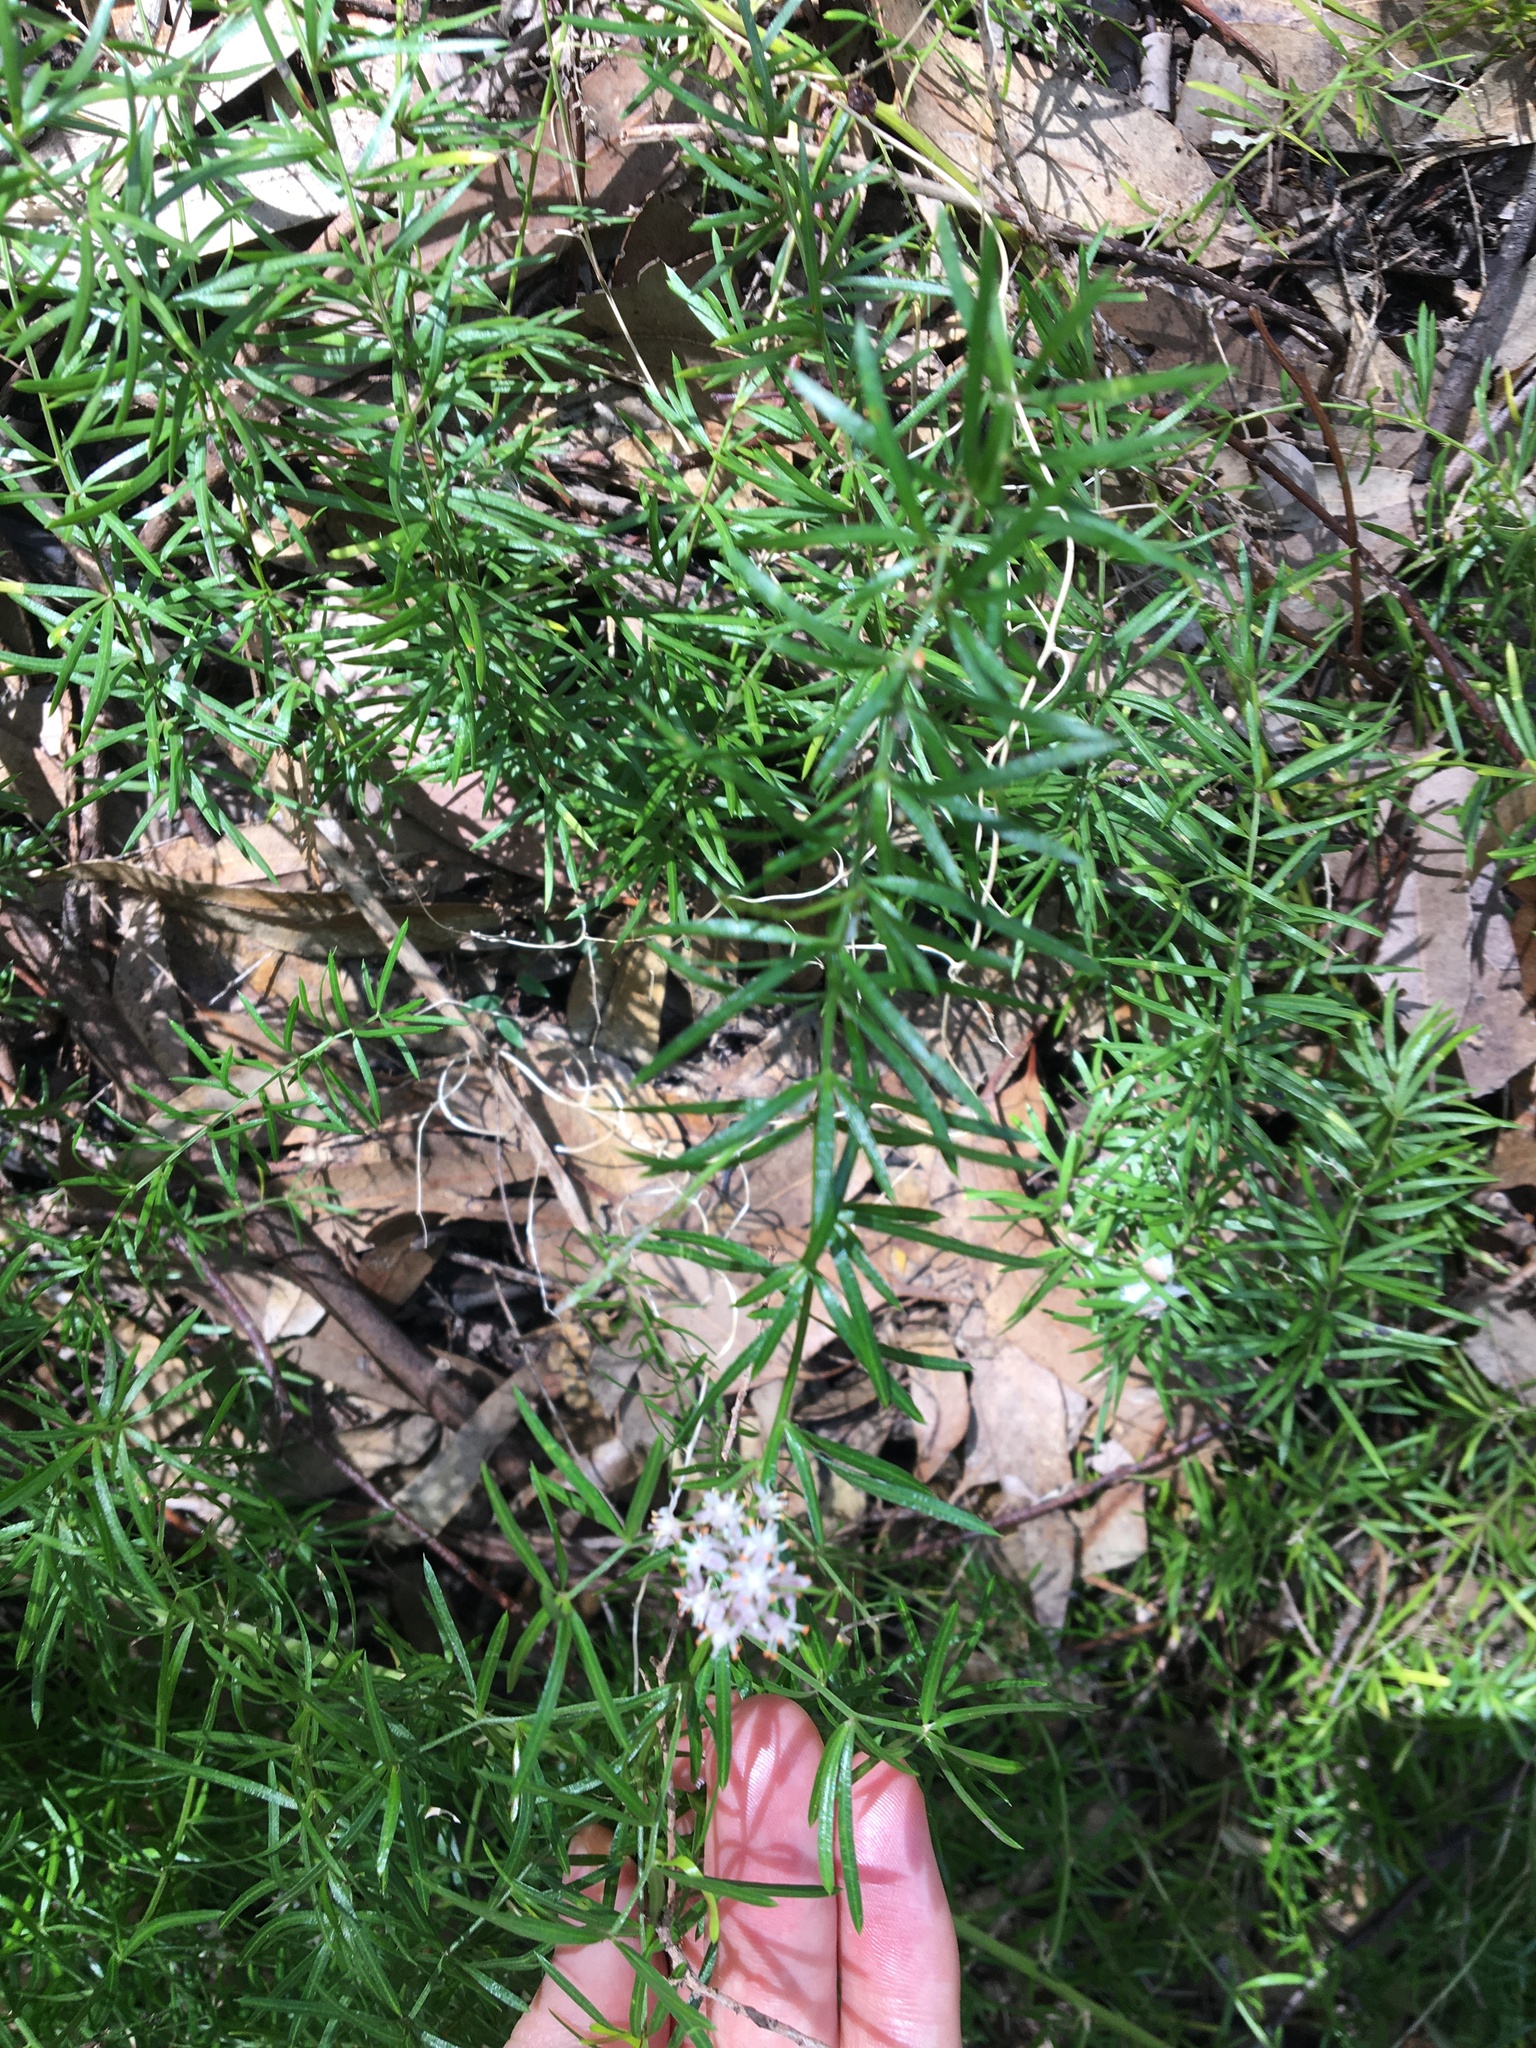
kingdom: Plantae
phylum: Tracheophyta
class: Liliopsida
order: Asparagales
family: Asparagaceae
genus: Asparagus
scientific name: Asparagus aethiopicus
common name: Sprenger's asparagus fern
